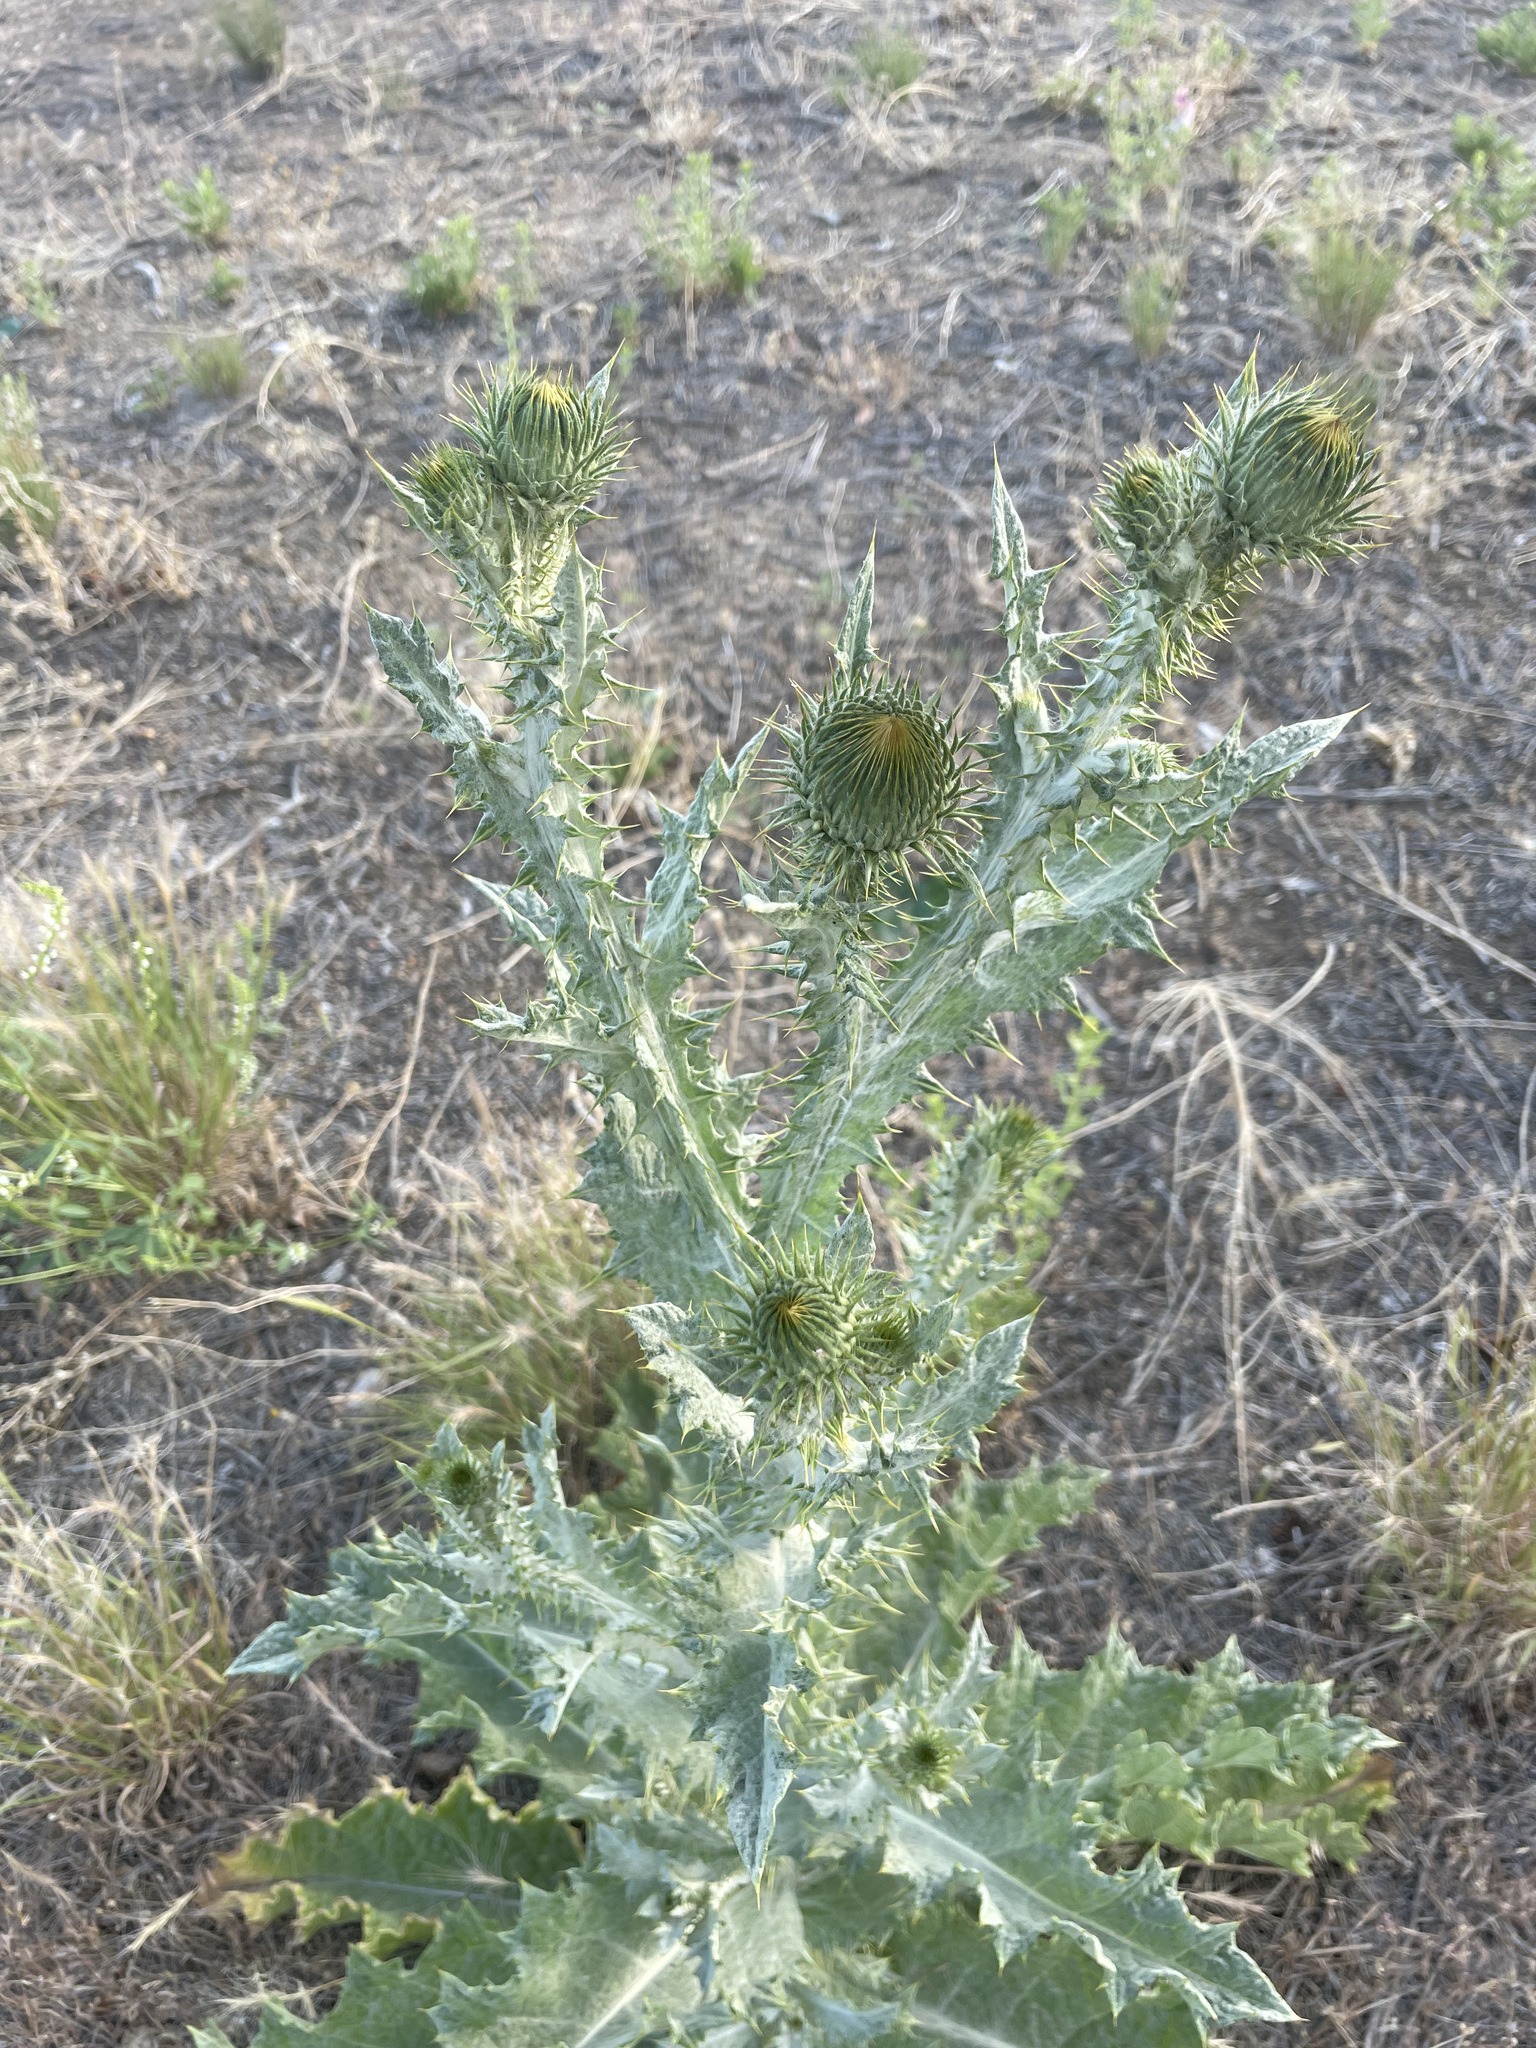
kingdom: Plantae
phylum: Tracheophyta
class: Magnoliopsida
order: Asterales
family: Asteraceae
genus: Onopordum
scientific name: Onopordum acanthium
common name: Scotch thistle
